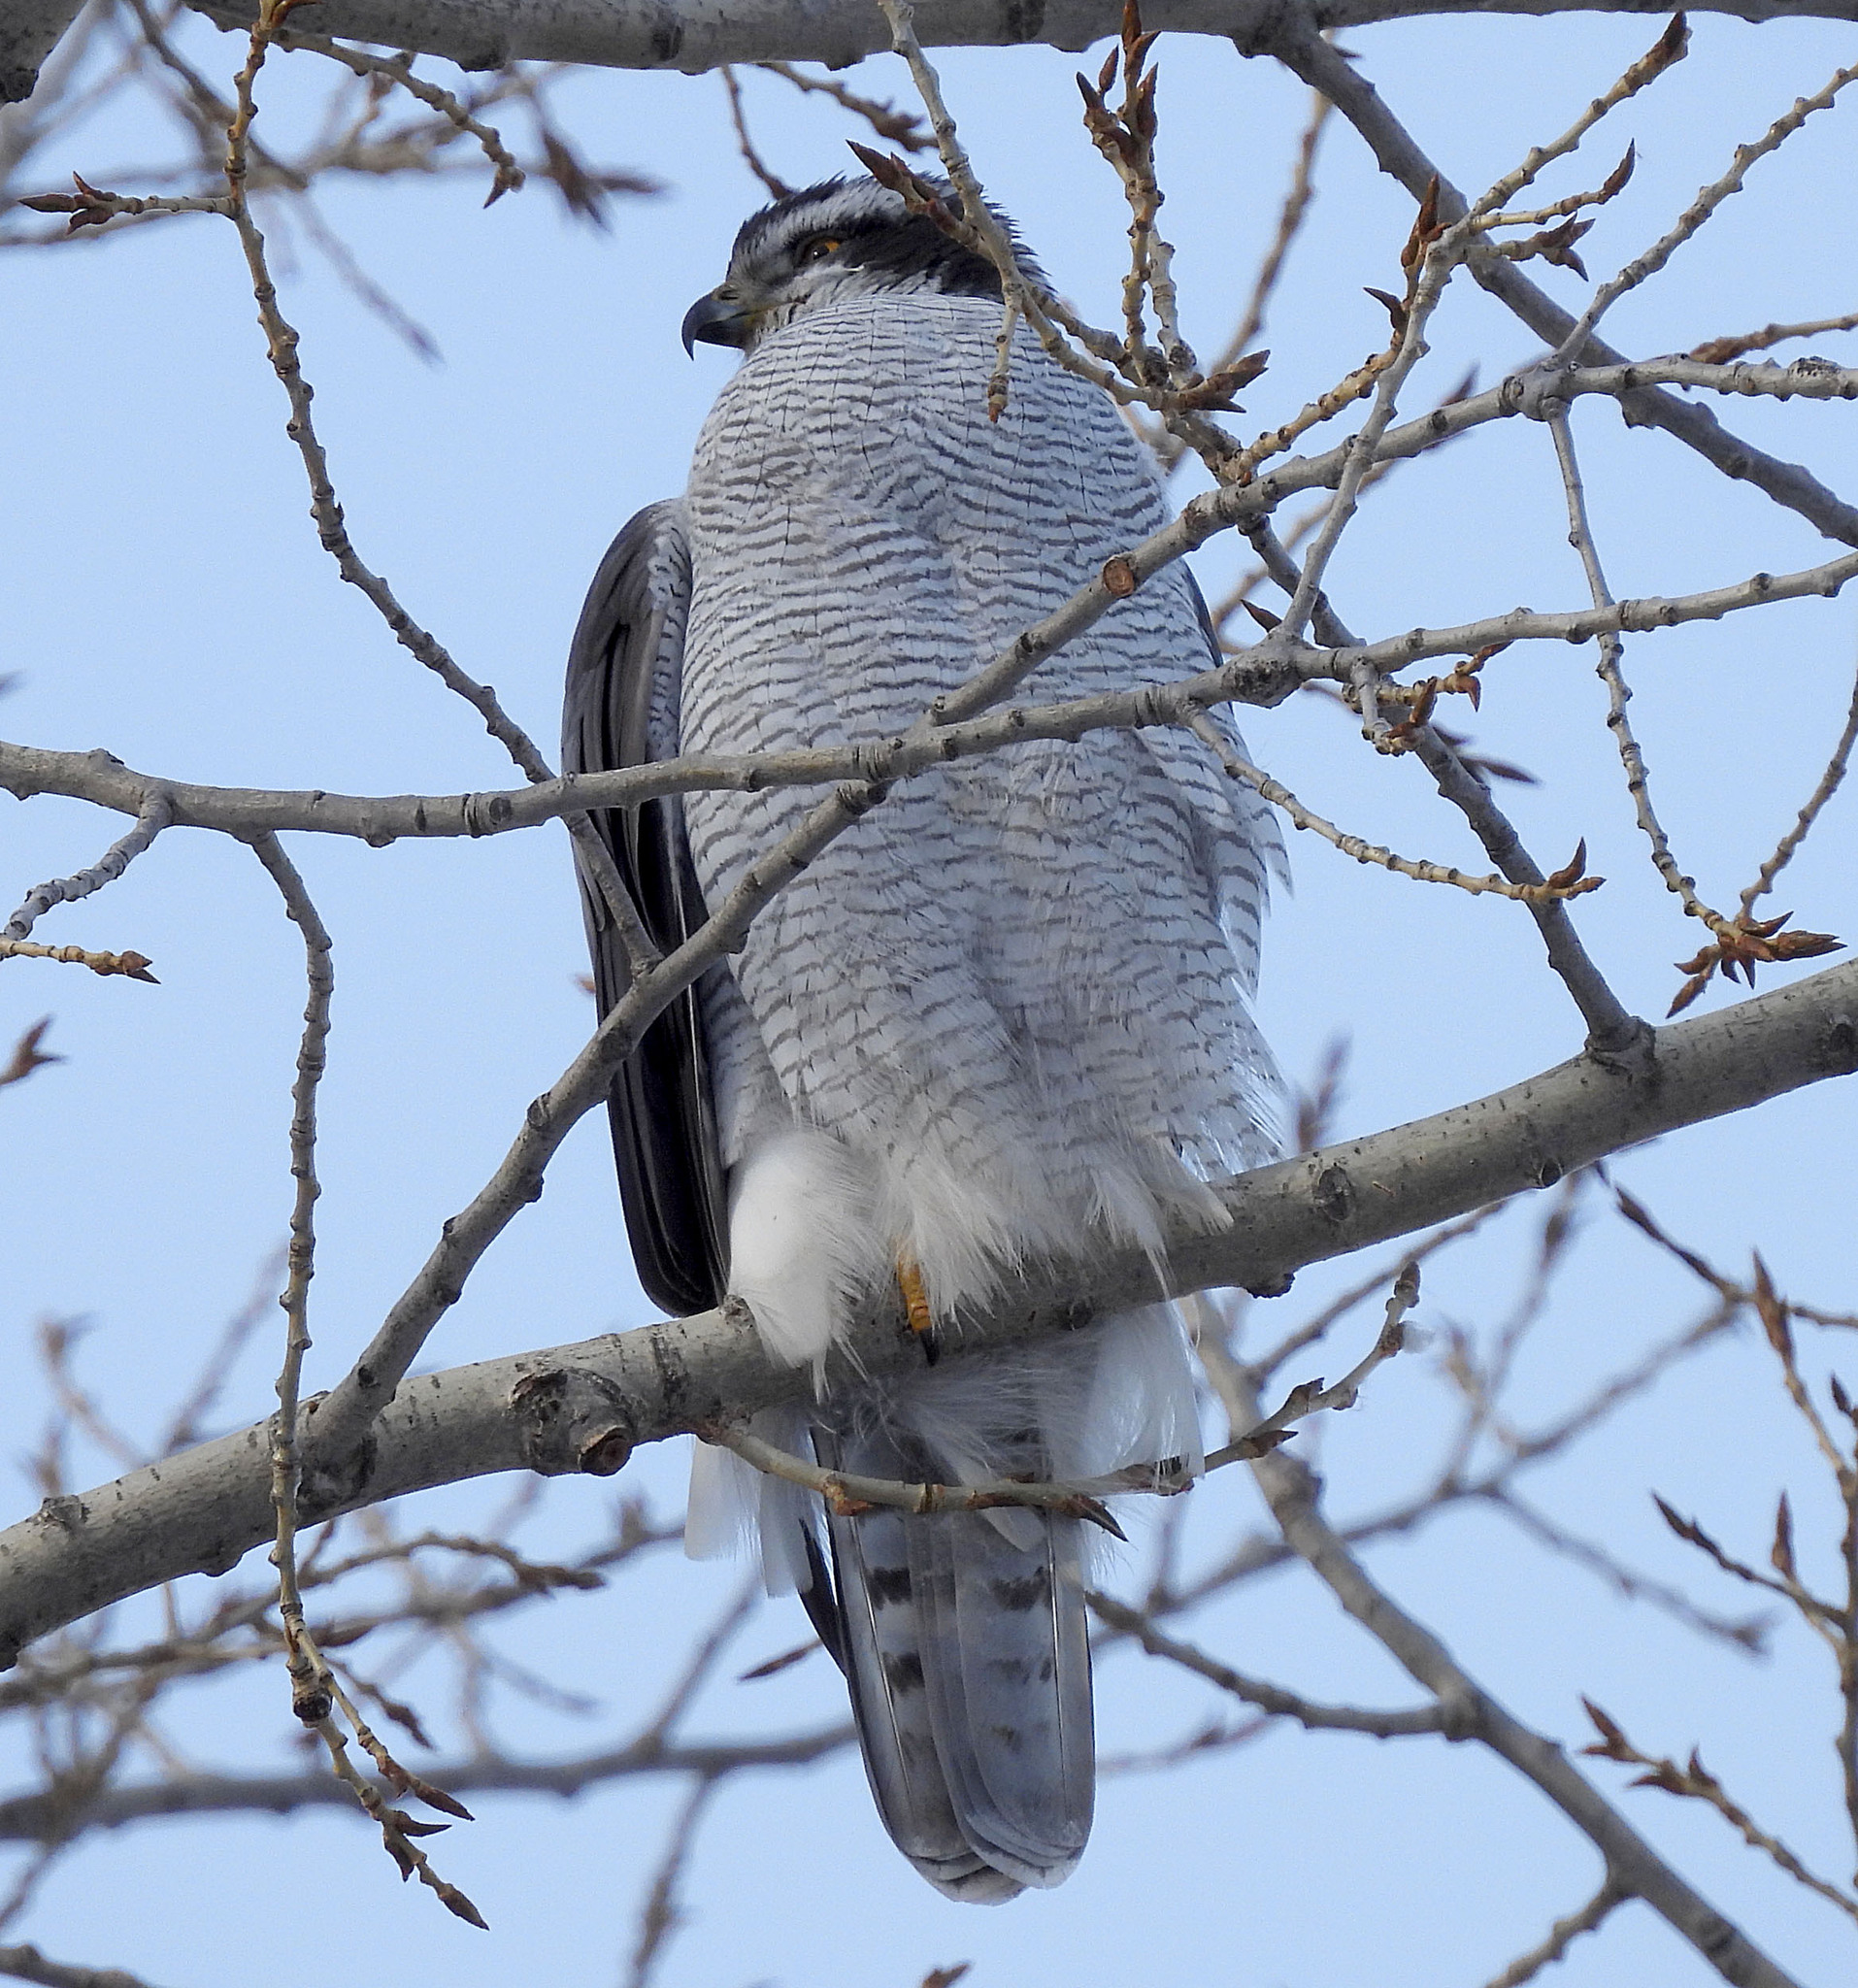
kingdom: Animalia
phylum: Chordata
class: Aves
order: Accipitriformes
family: Accipitridae
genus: Accipiter
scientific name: Accipiter gentilis
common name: Northern goshawk
